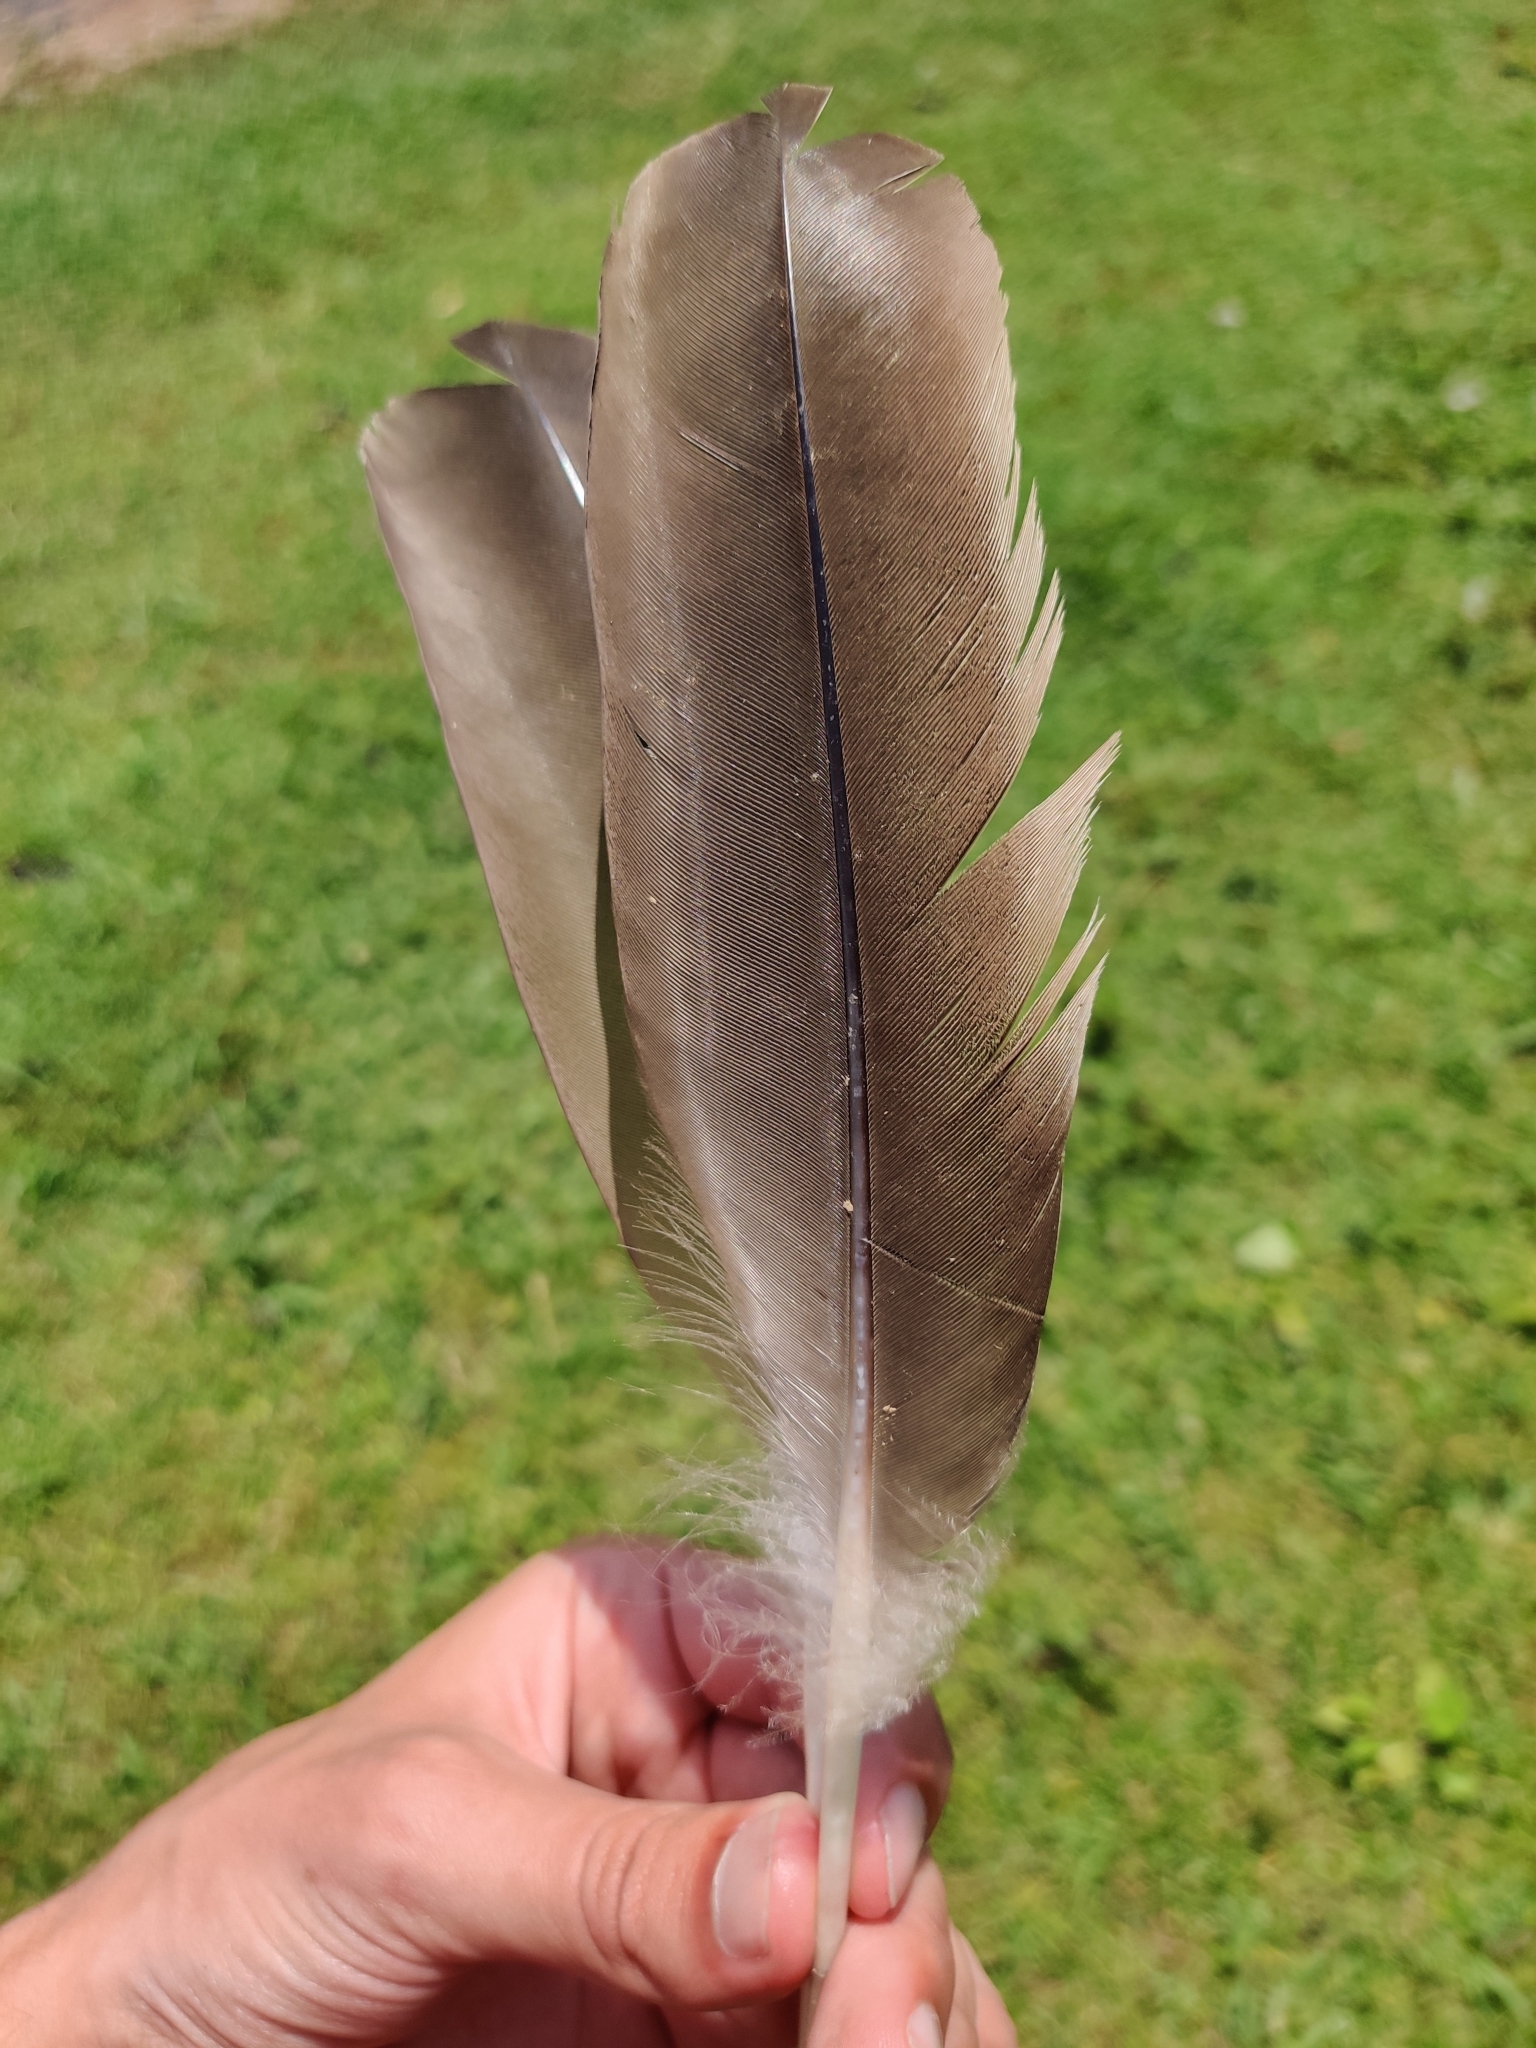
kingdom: Animalia
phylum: Chordata
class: Aves
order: Anseriformes
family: Anatidae
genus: Branta
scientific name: Branta canadensis
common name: Canada goose
